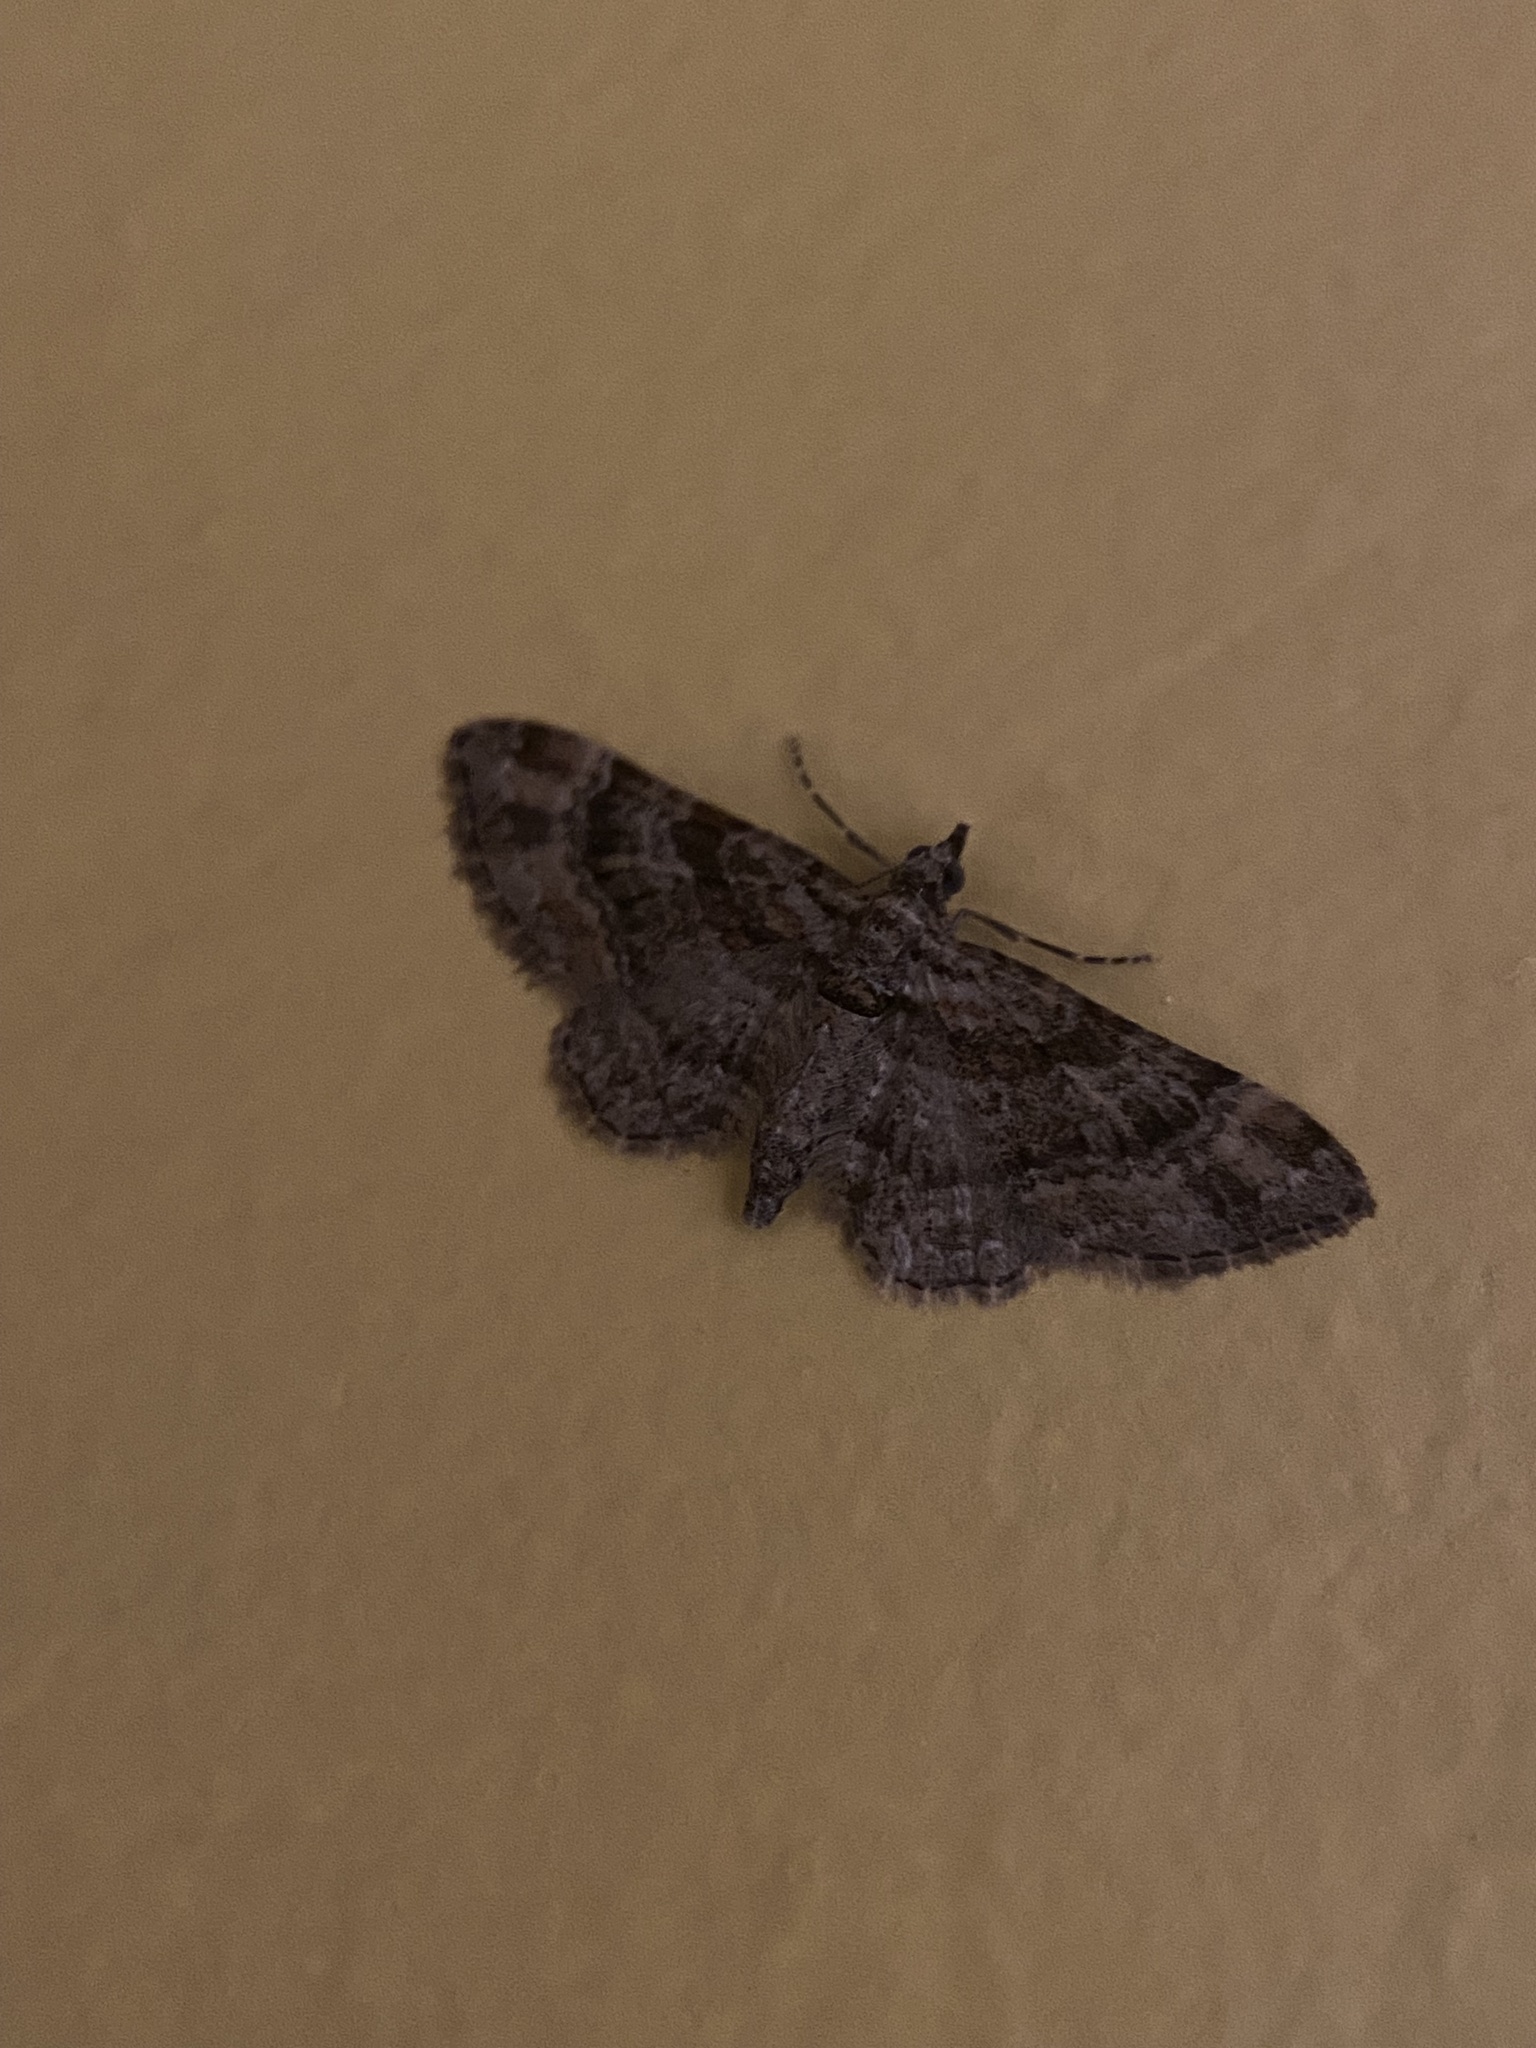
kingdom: Animalia
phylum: Arthropoda
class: Insecta
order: Lepidoptera
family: Geometridae
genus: Gymnoscelis
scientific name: Gymnoscelis rufifasciata
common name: Double-striped pug
